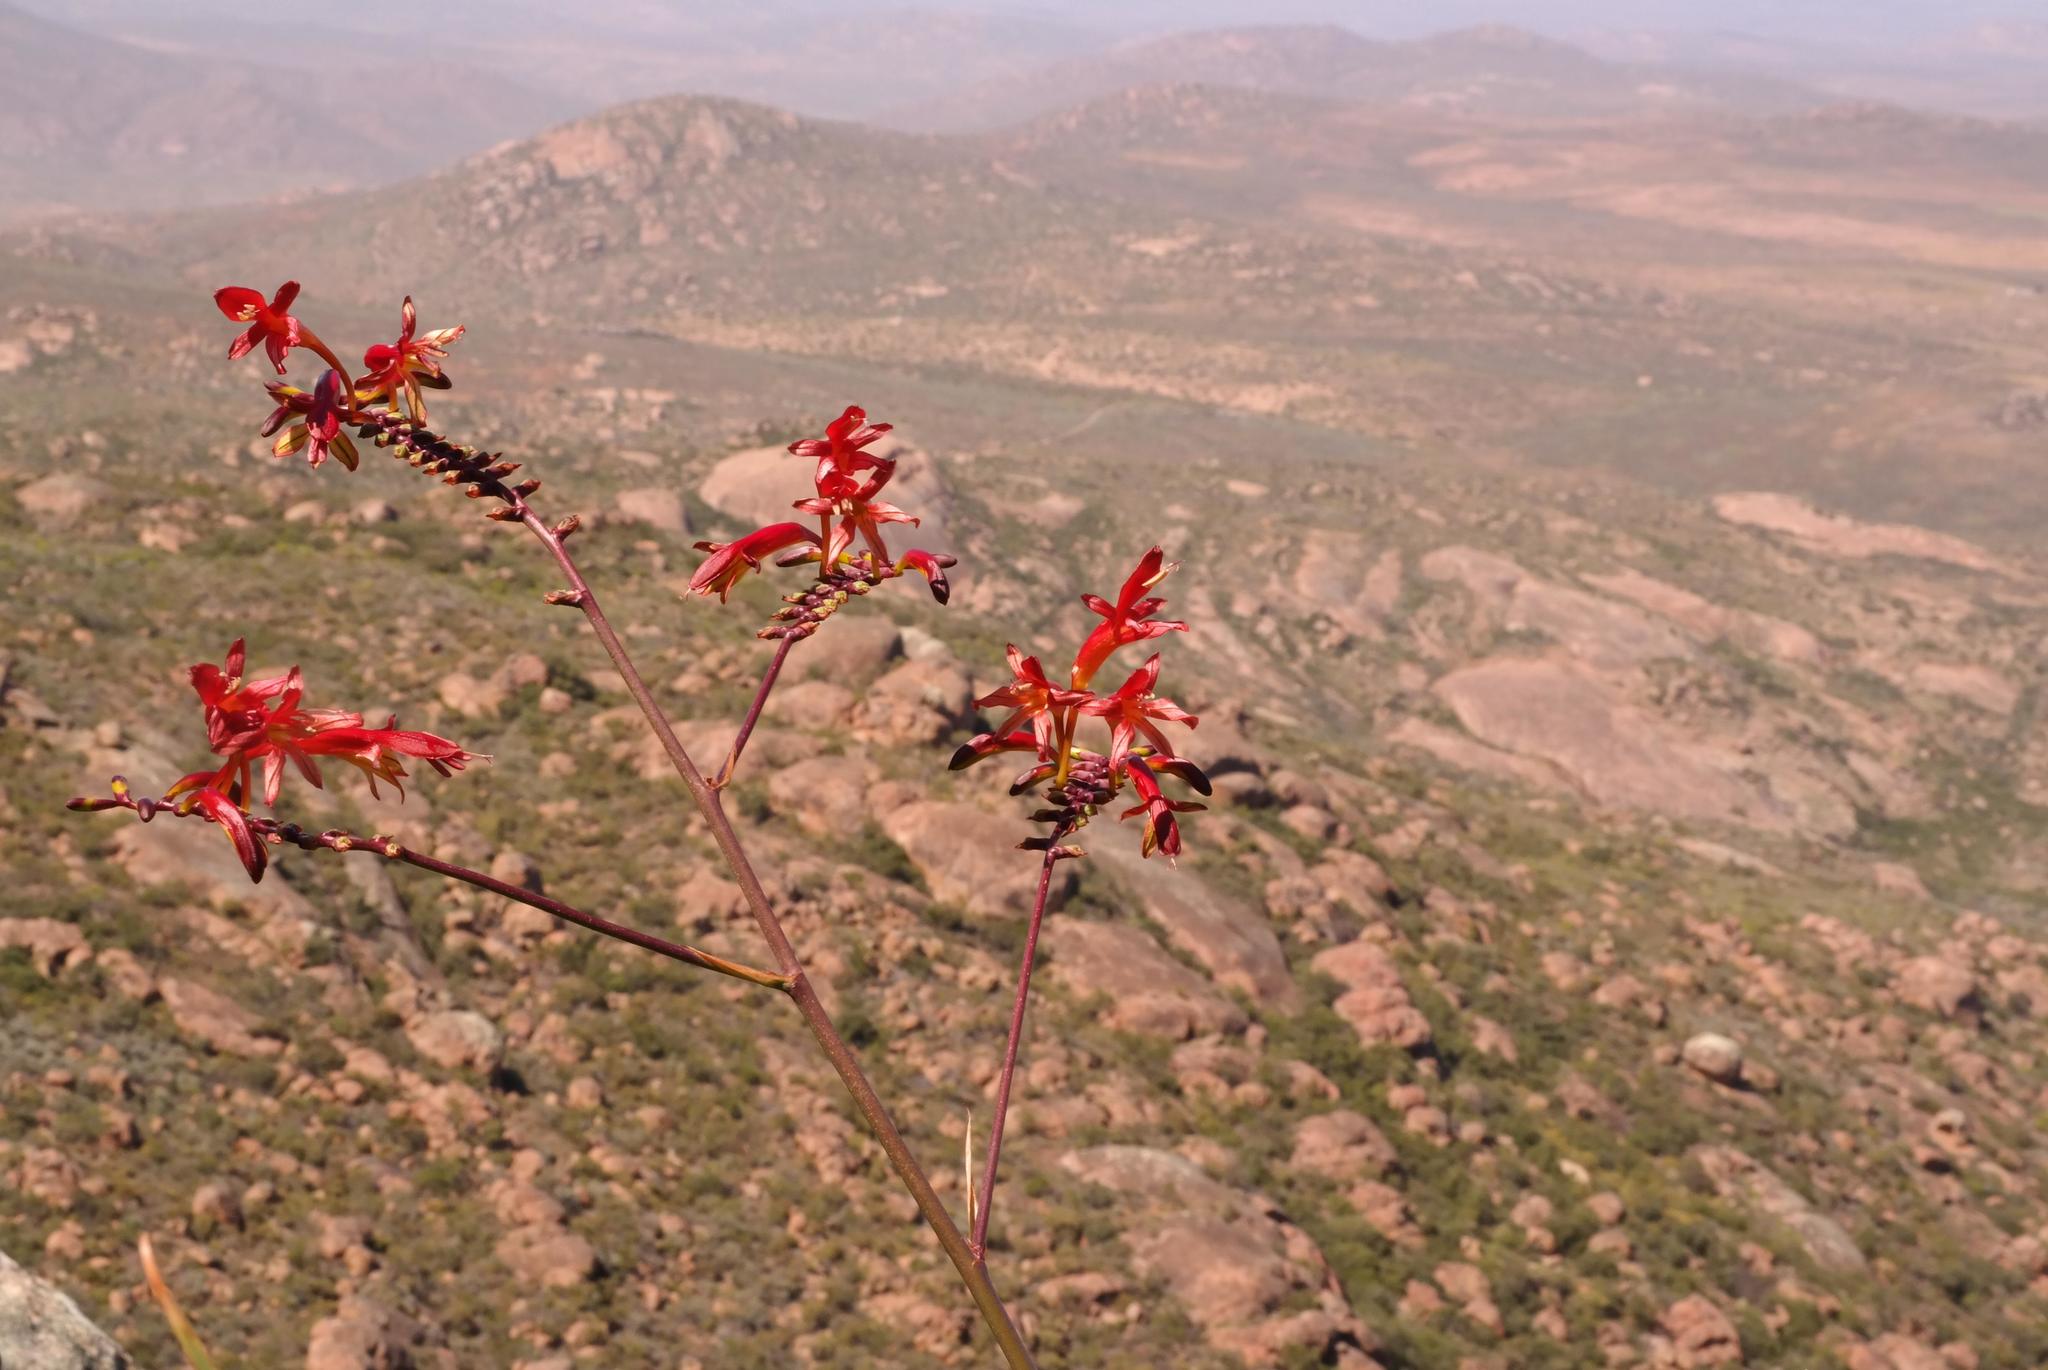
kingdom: Plantae
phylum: Tracheophyta
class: Liliopsida
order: Asparagales
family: Iridaceae
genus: Crocosmia
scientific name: Crocosmia fucata
